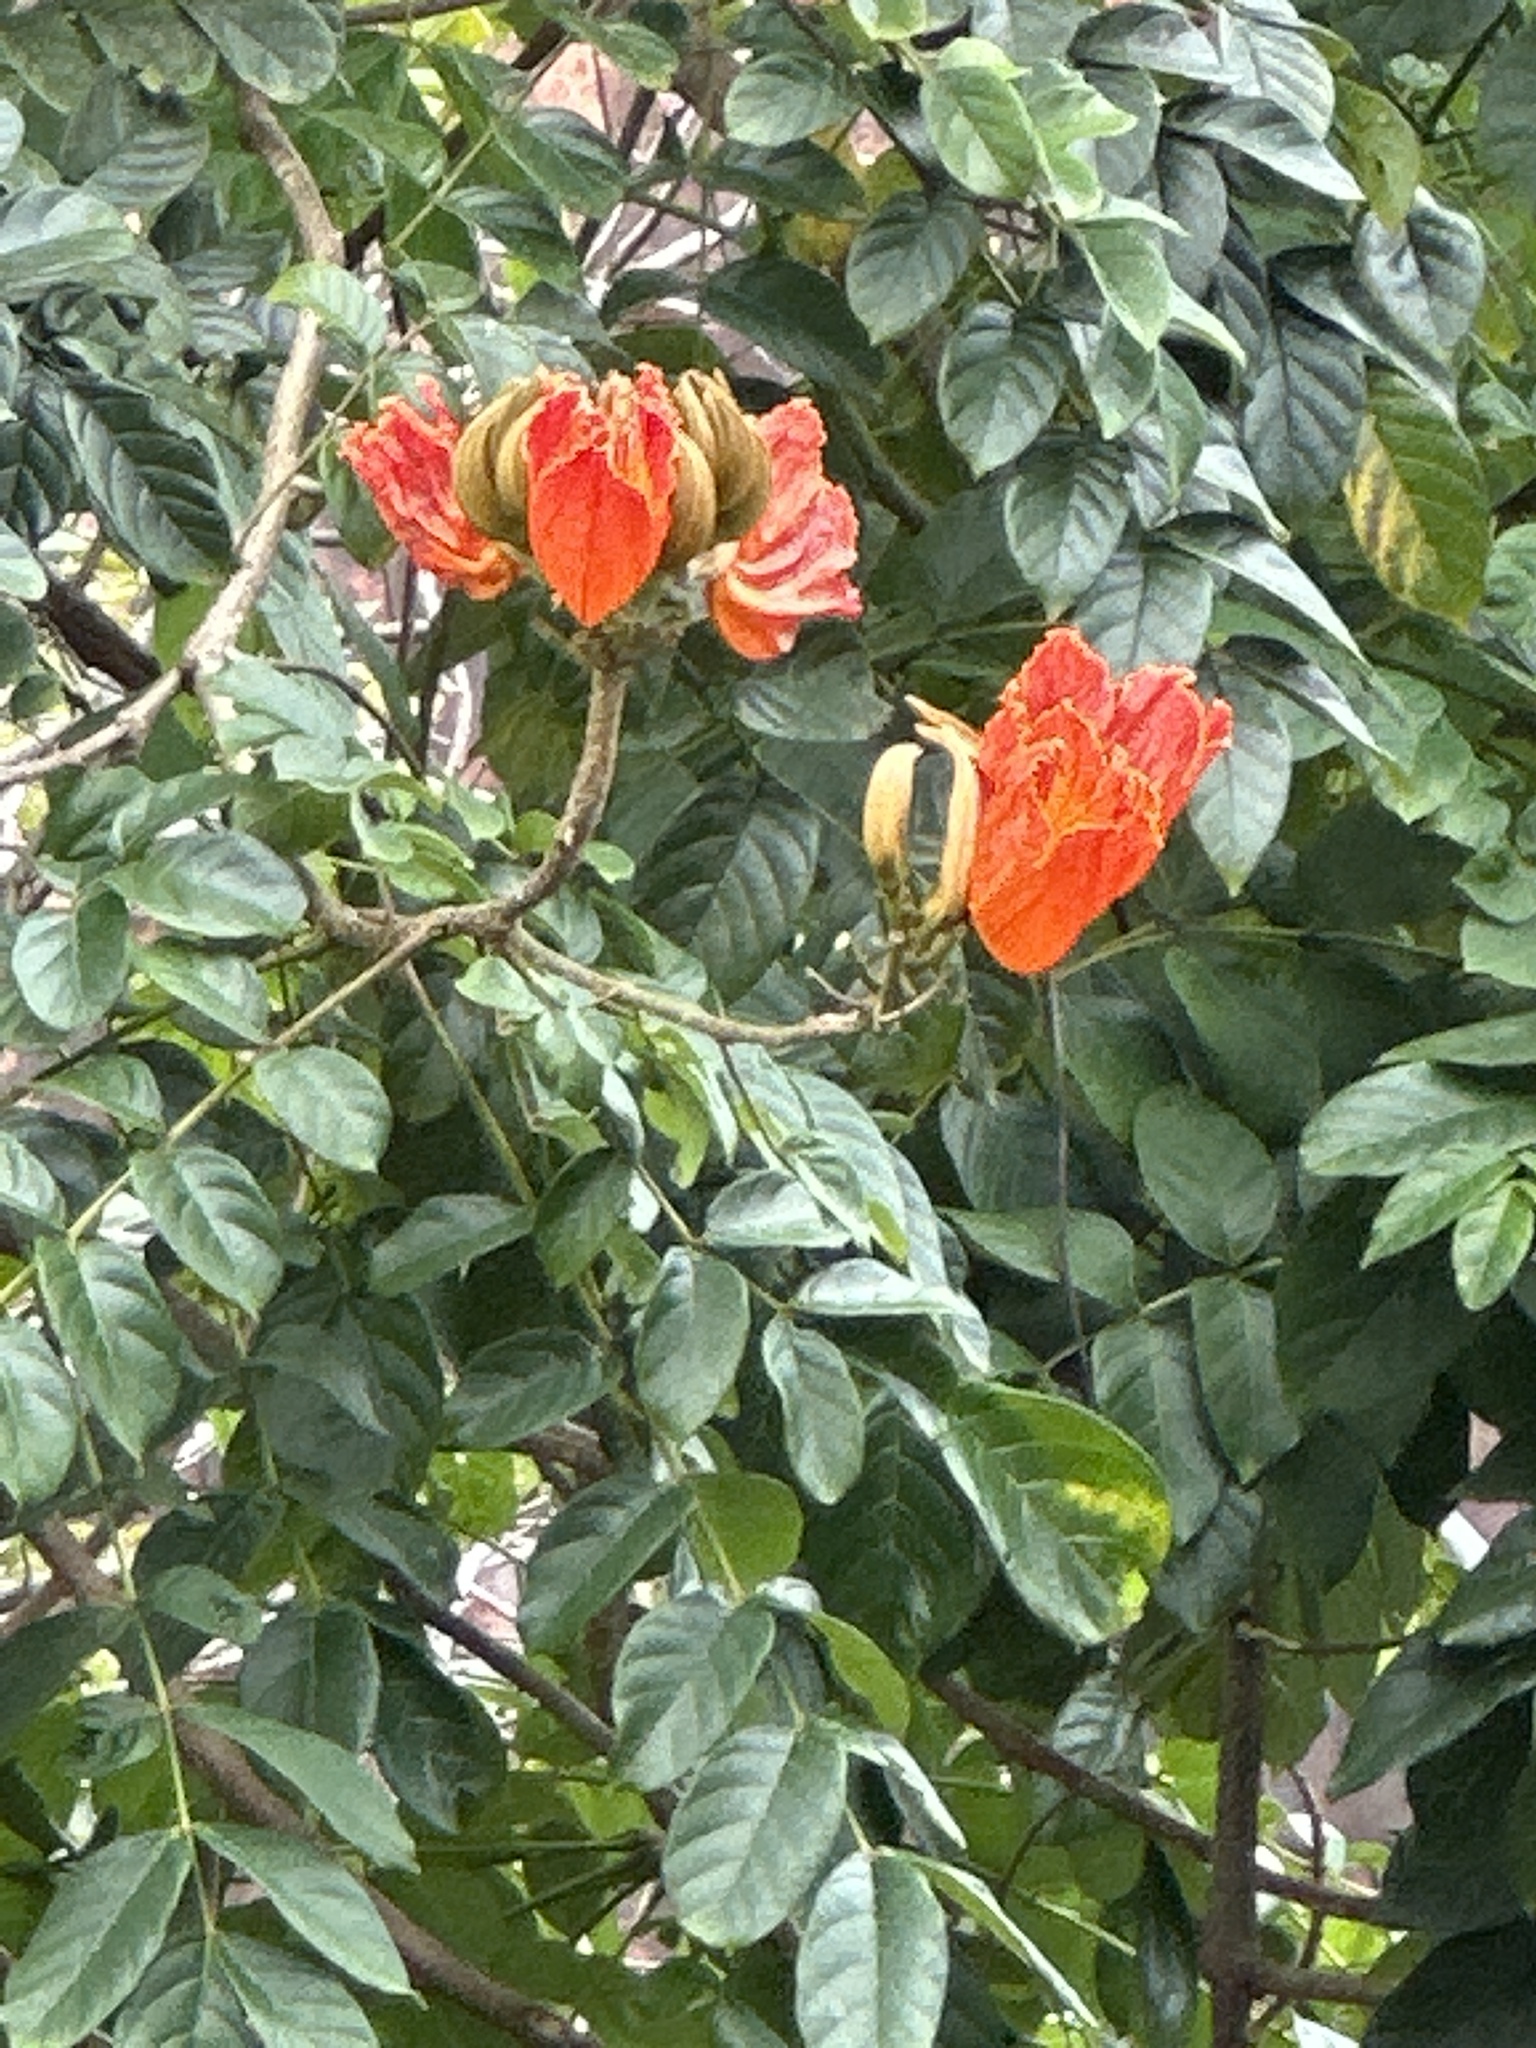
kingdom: Plantae
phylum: Tracheophyta
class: Magnoliopsida
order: Lamiales
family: Bignoniaceae
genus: Spathodea
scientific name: Spathodea campanulata
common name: African tuliptree
